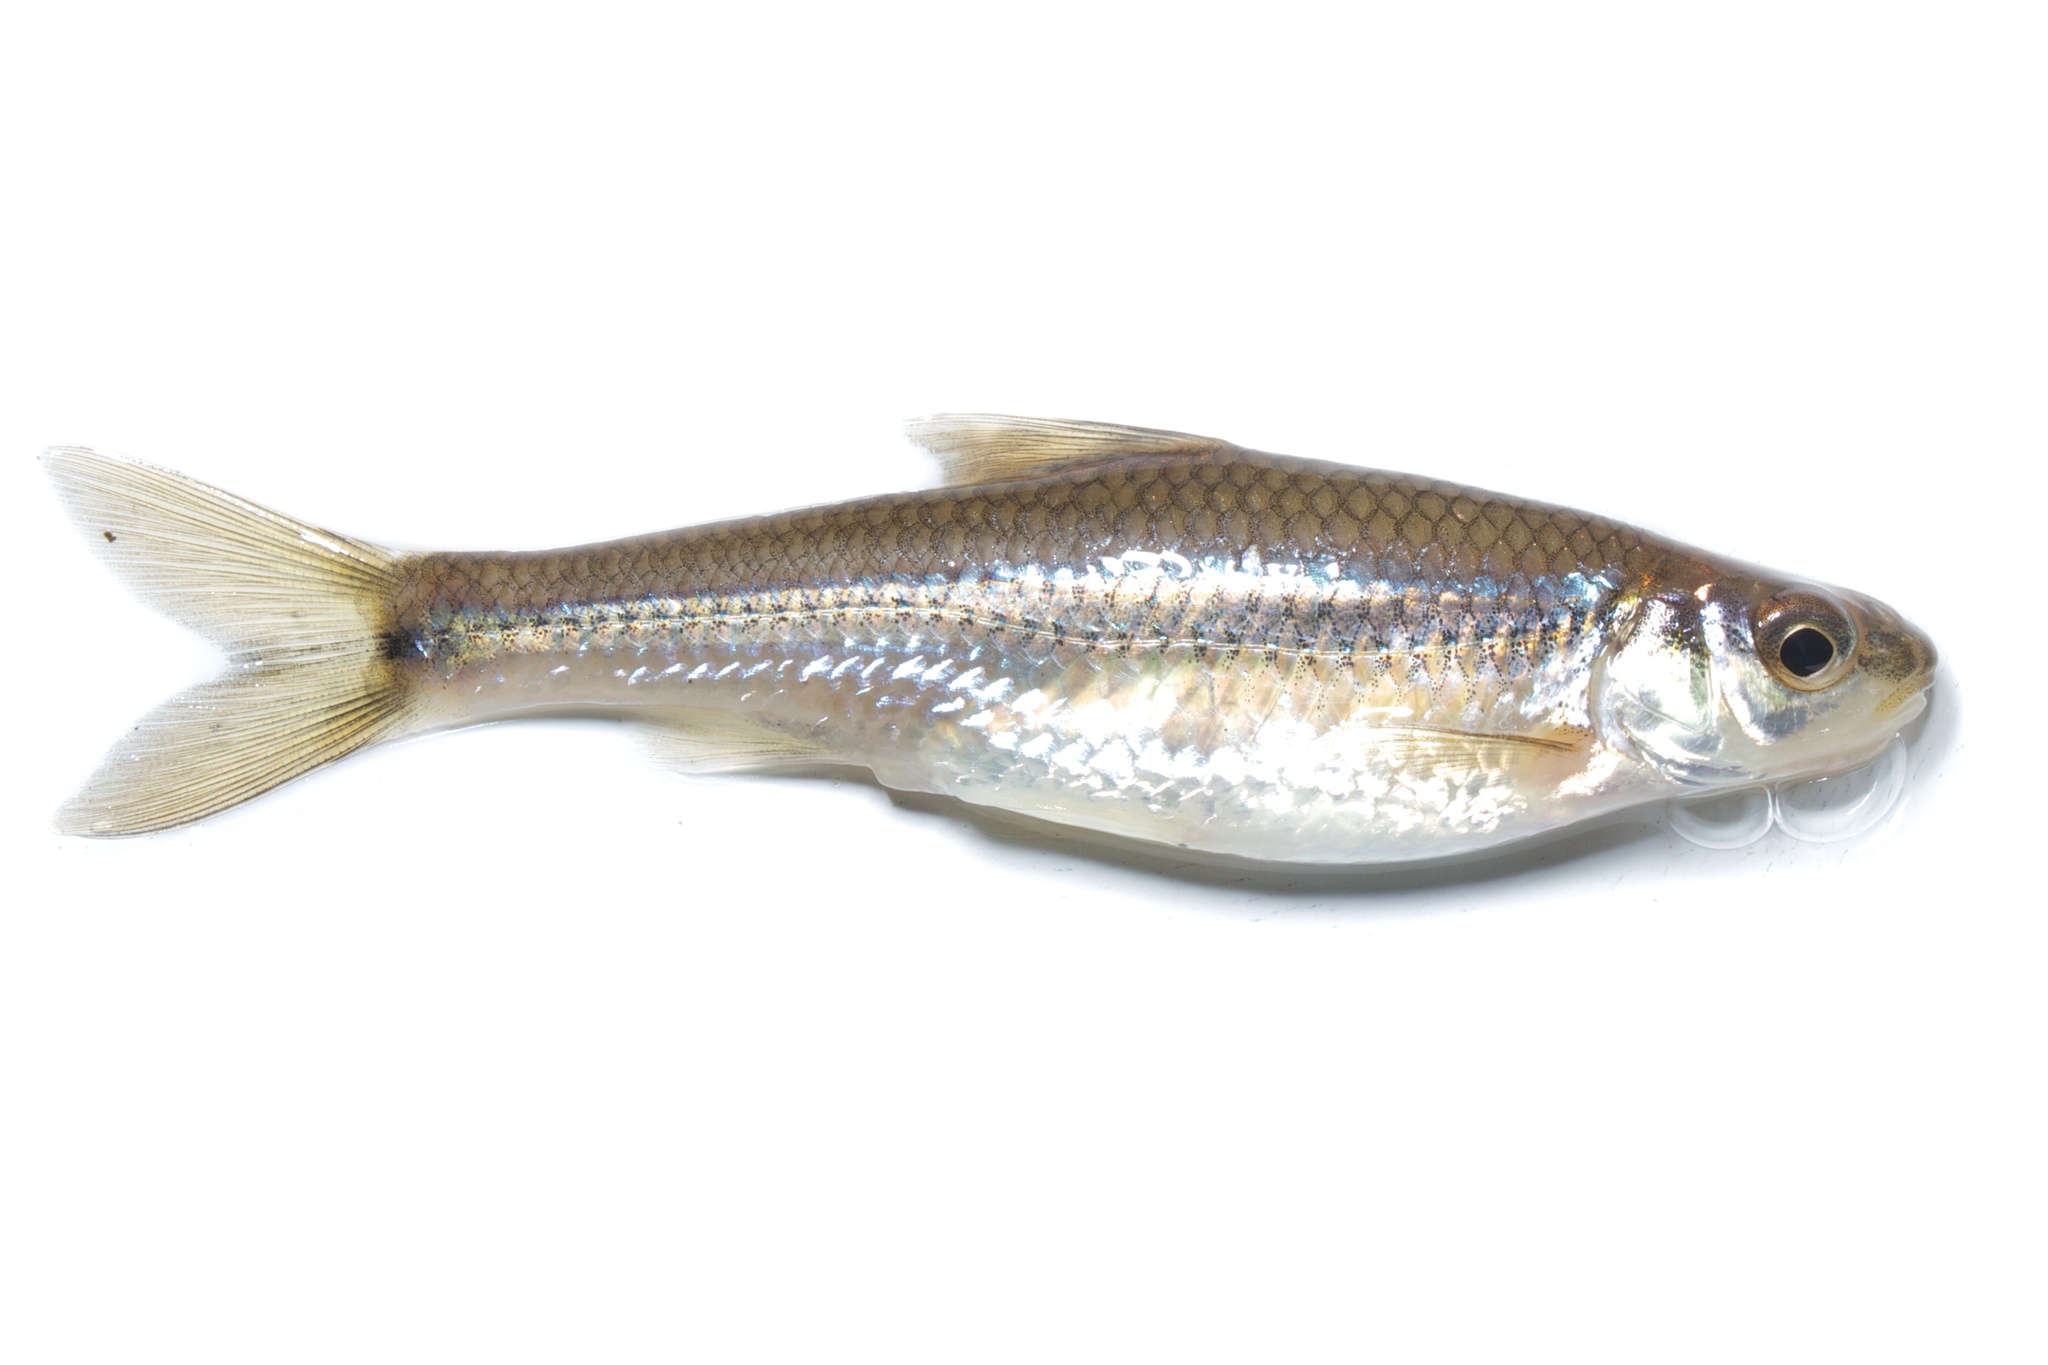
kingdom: Animalia
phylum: Chordata
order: Cypriniformes
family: Cyprinidae
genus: Notropis
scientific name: Notropis
